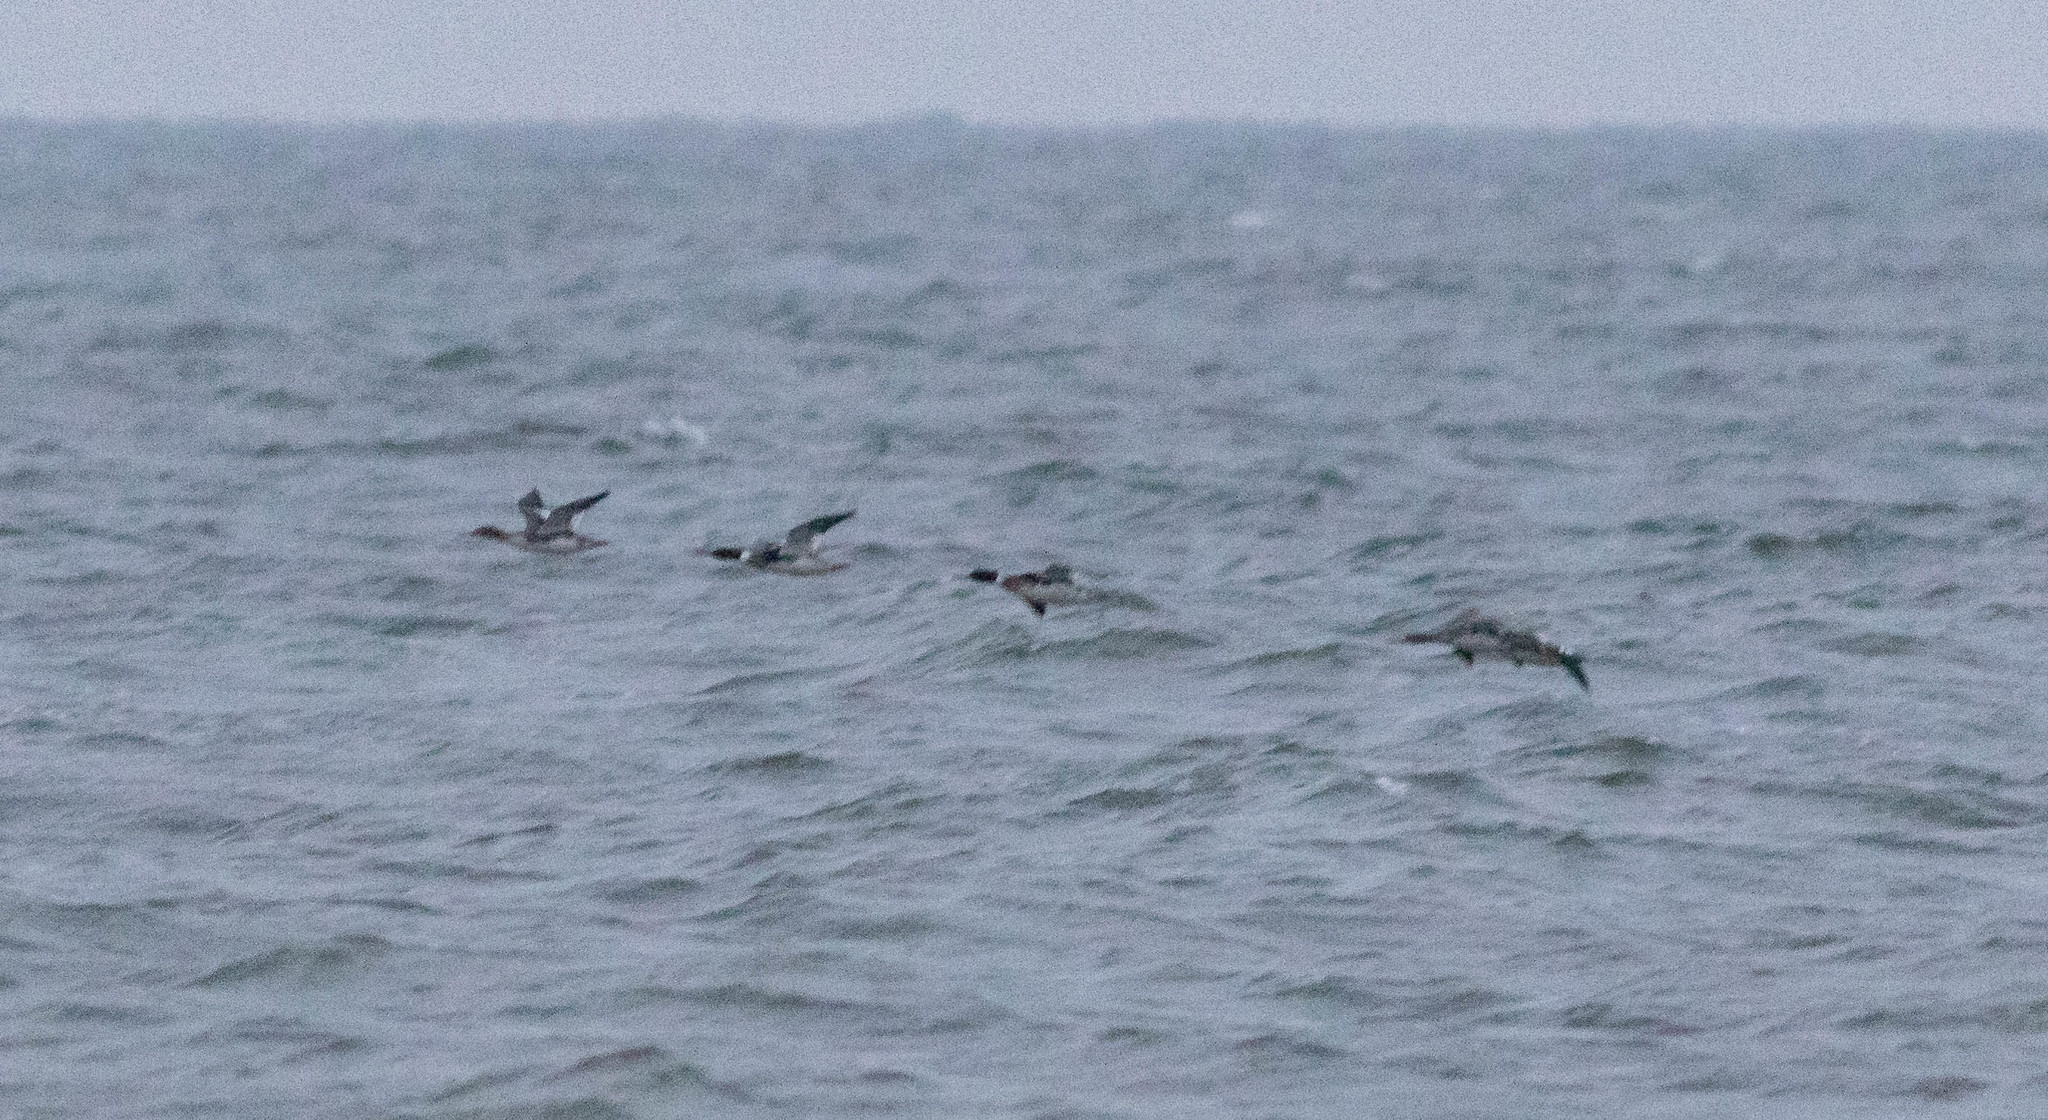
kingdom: Animalia
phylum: Chordata
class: Aves
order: Anseriformes
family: Anatidae
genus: Mergus
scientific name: Mergus serrator
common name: Red-breasted merganser
